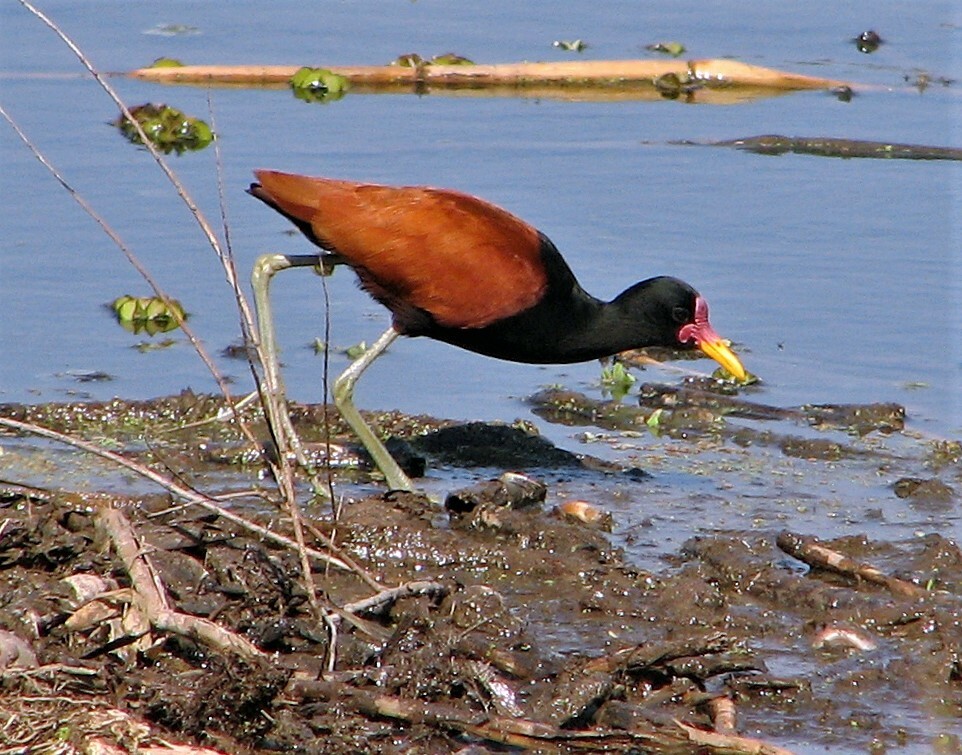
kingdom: Animalia
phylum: Chordata
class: Aves
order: Charadriiformes
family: Jacanidae
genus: Jacana
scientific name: Jacana jacana
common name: Wattled jacana
